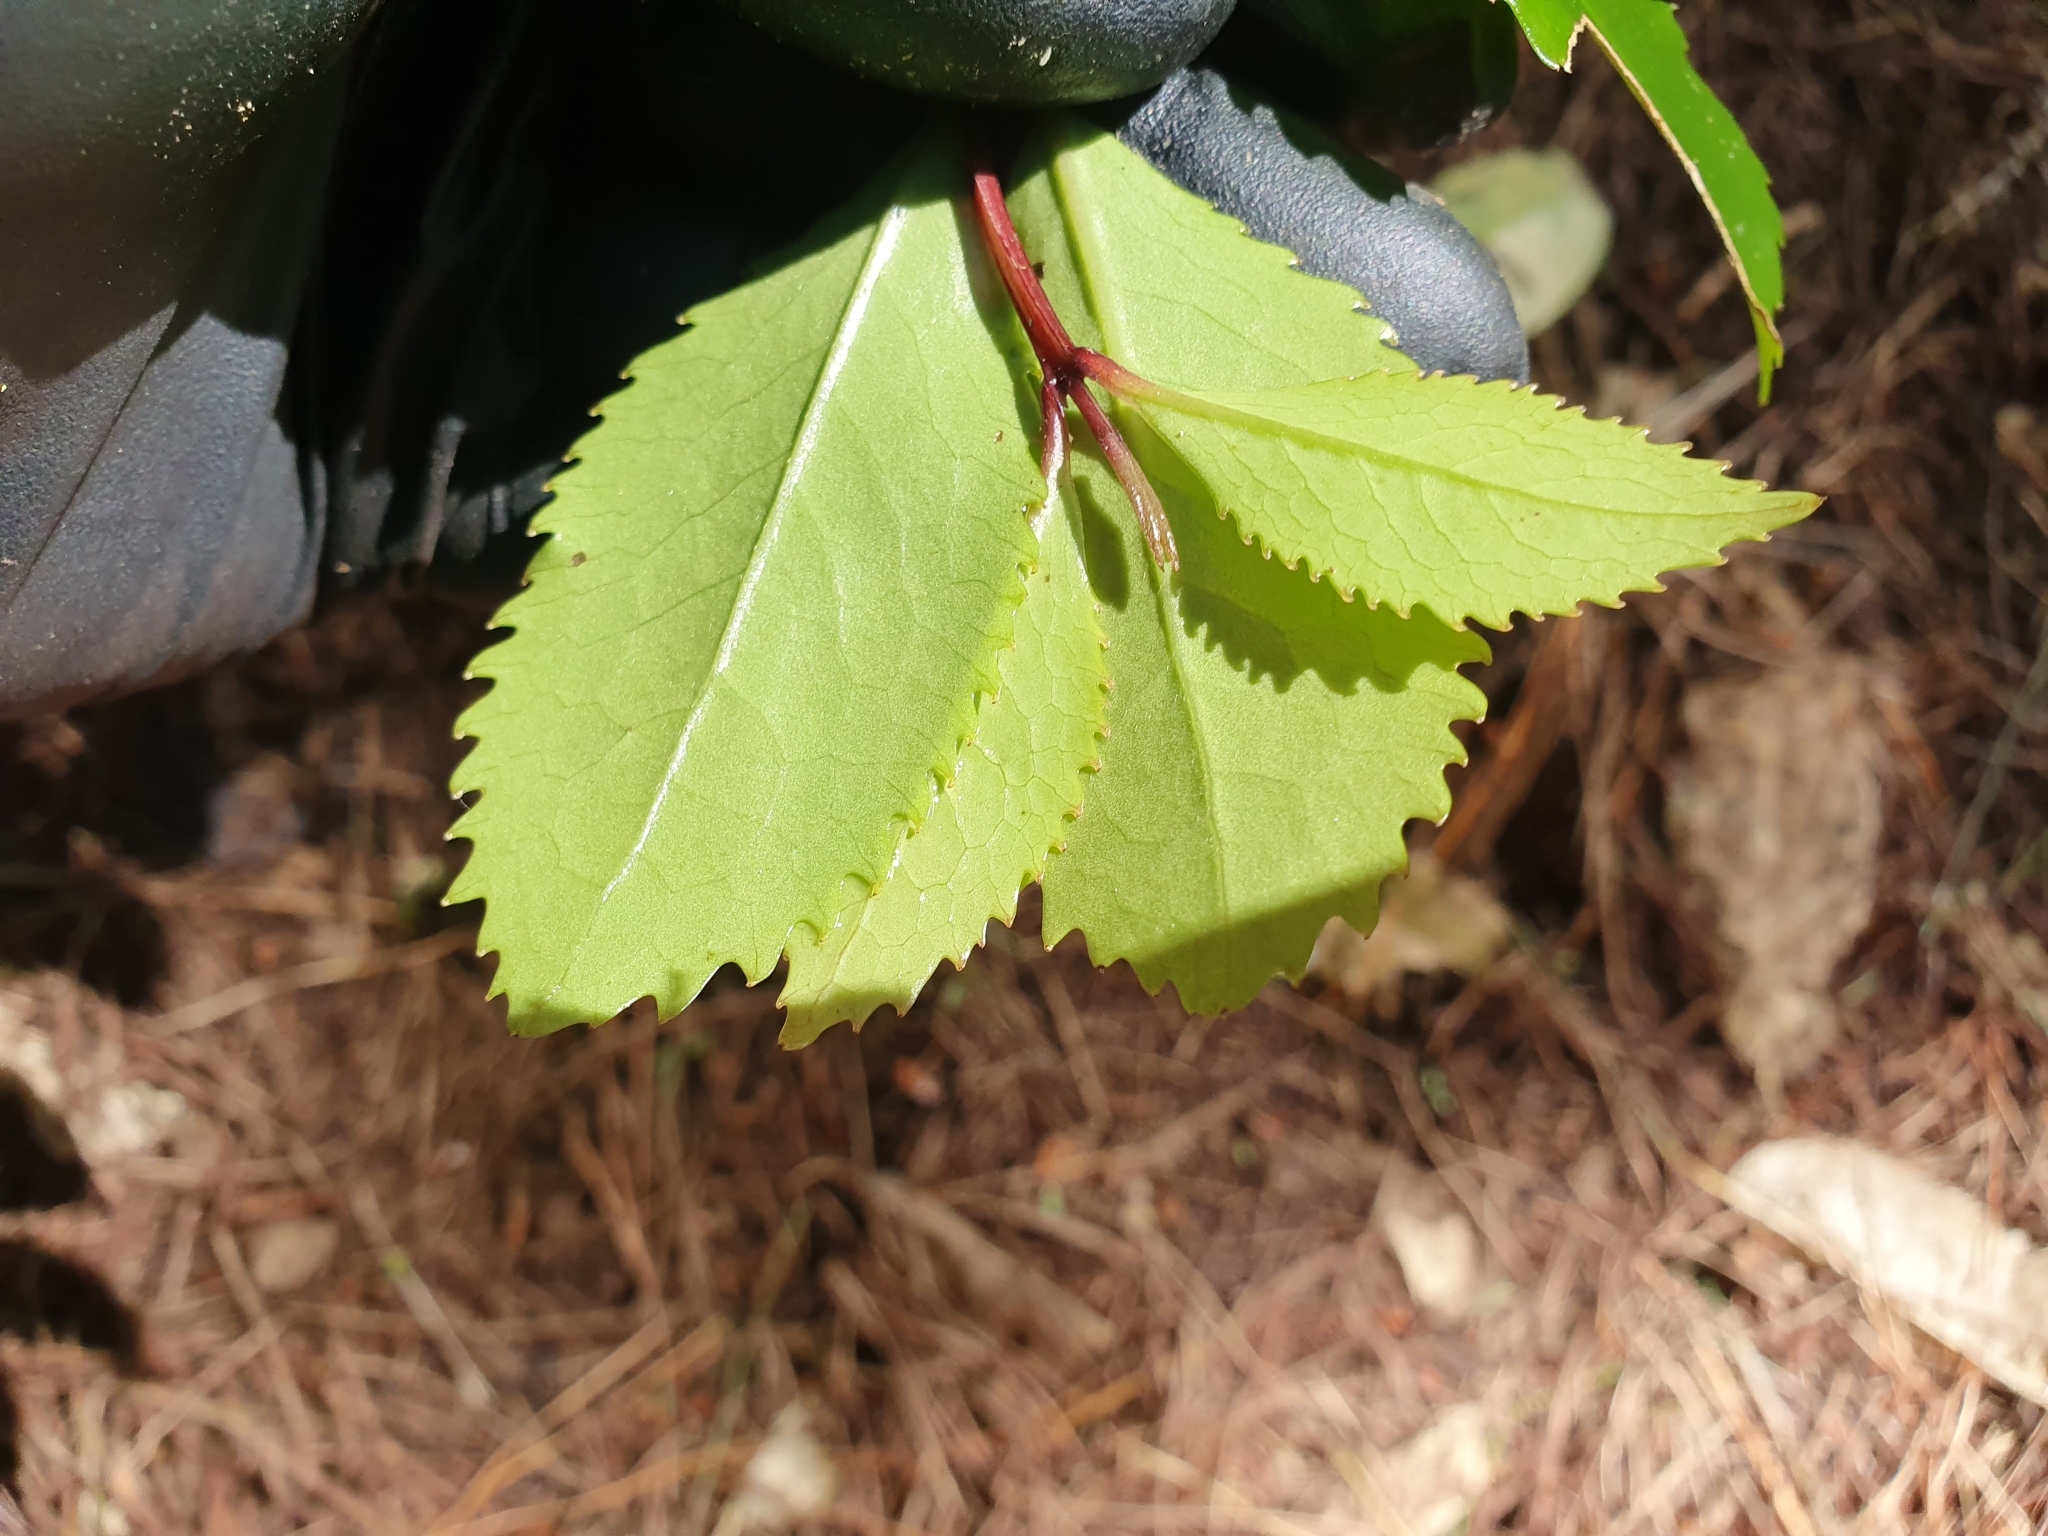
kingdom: Plantae
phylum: Tracheophyta
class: Magnoliopsida
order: Laurales
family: Atherospermataceae
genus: Laurelia
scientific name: Laurelia novae-zelandiae
